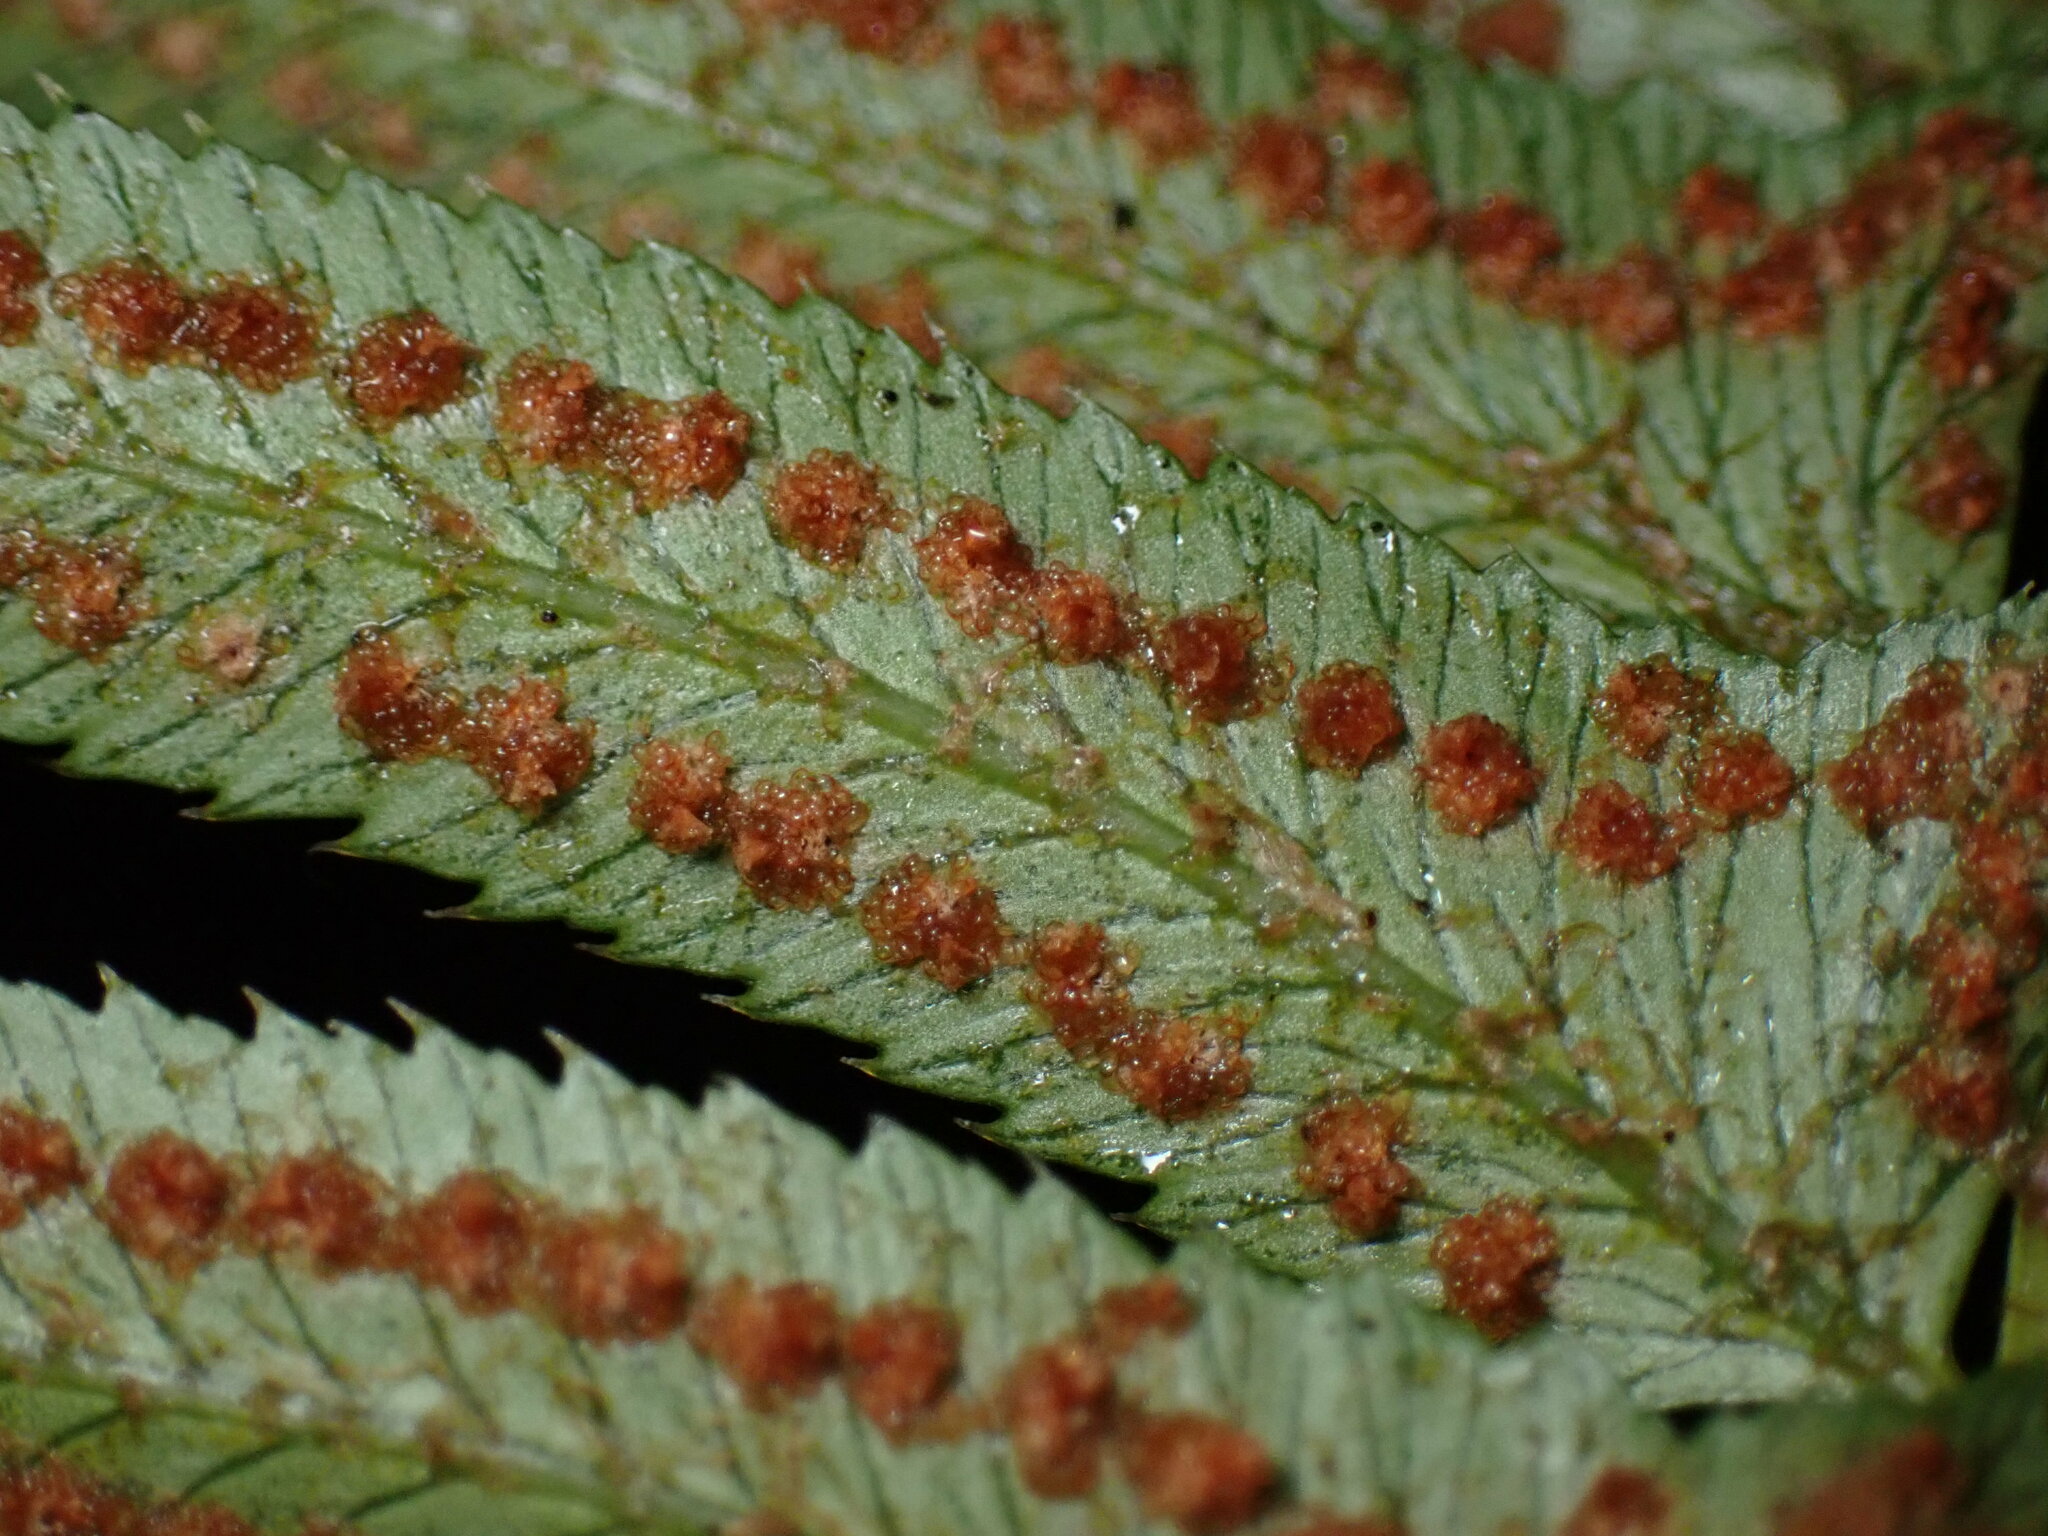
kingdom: Plantae
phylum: Tracheophyta
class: Polypodiopsida
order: Polypodiales
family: Dryopteridaceae
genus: Polystichum
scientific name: Polystichum munitum
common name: Western sword-fern
